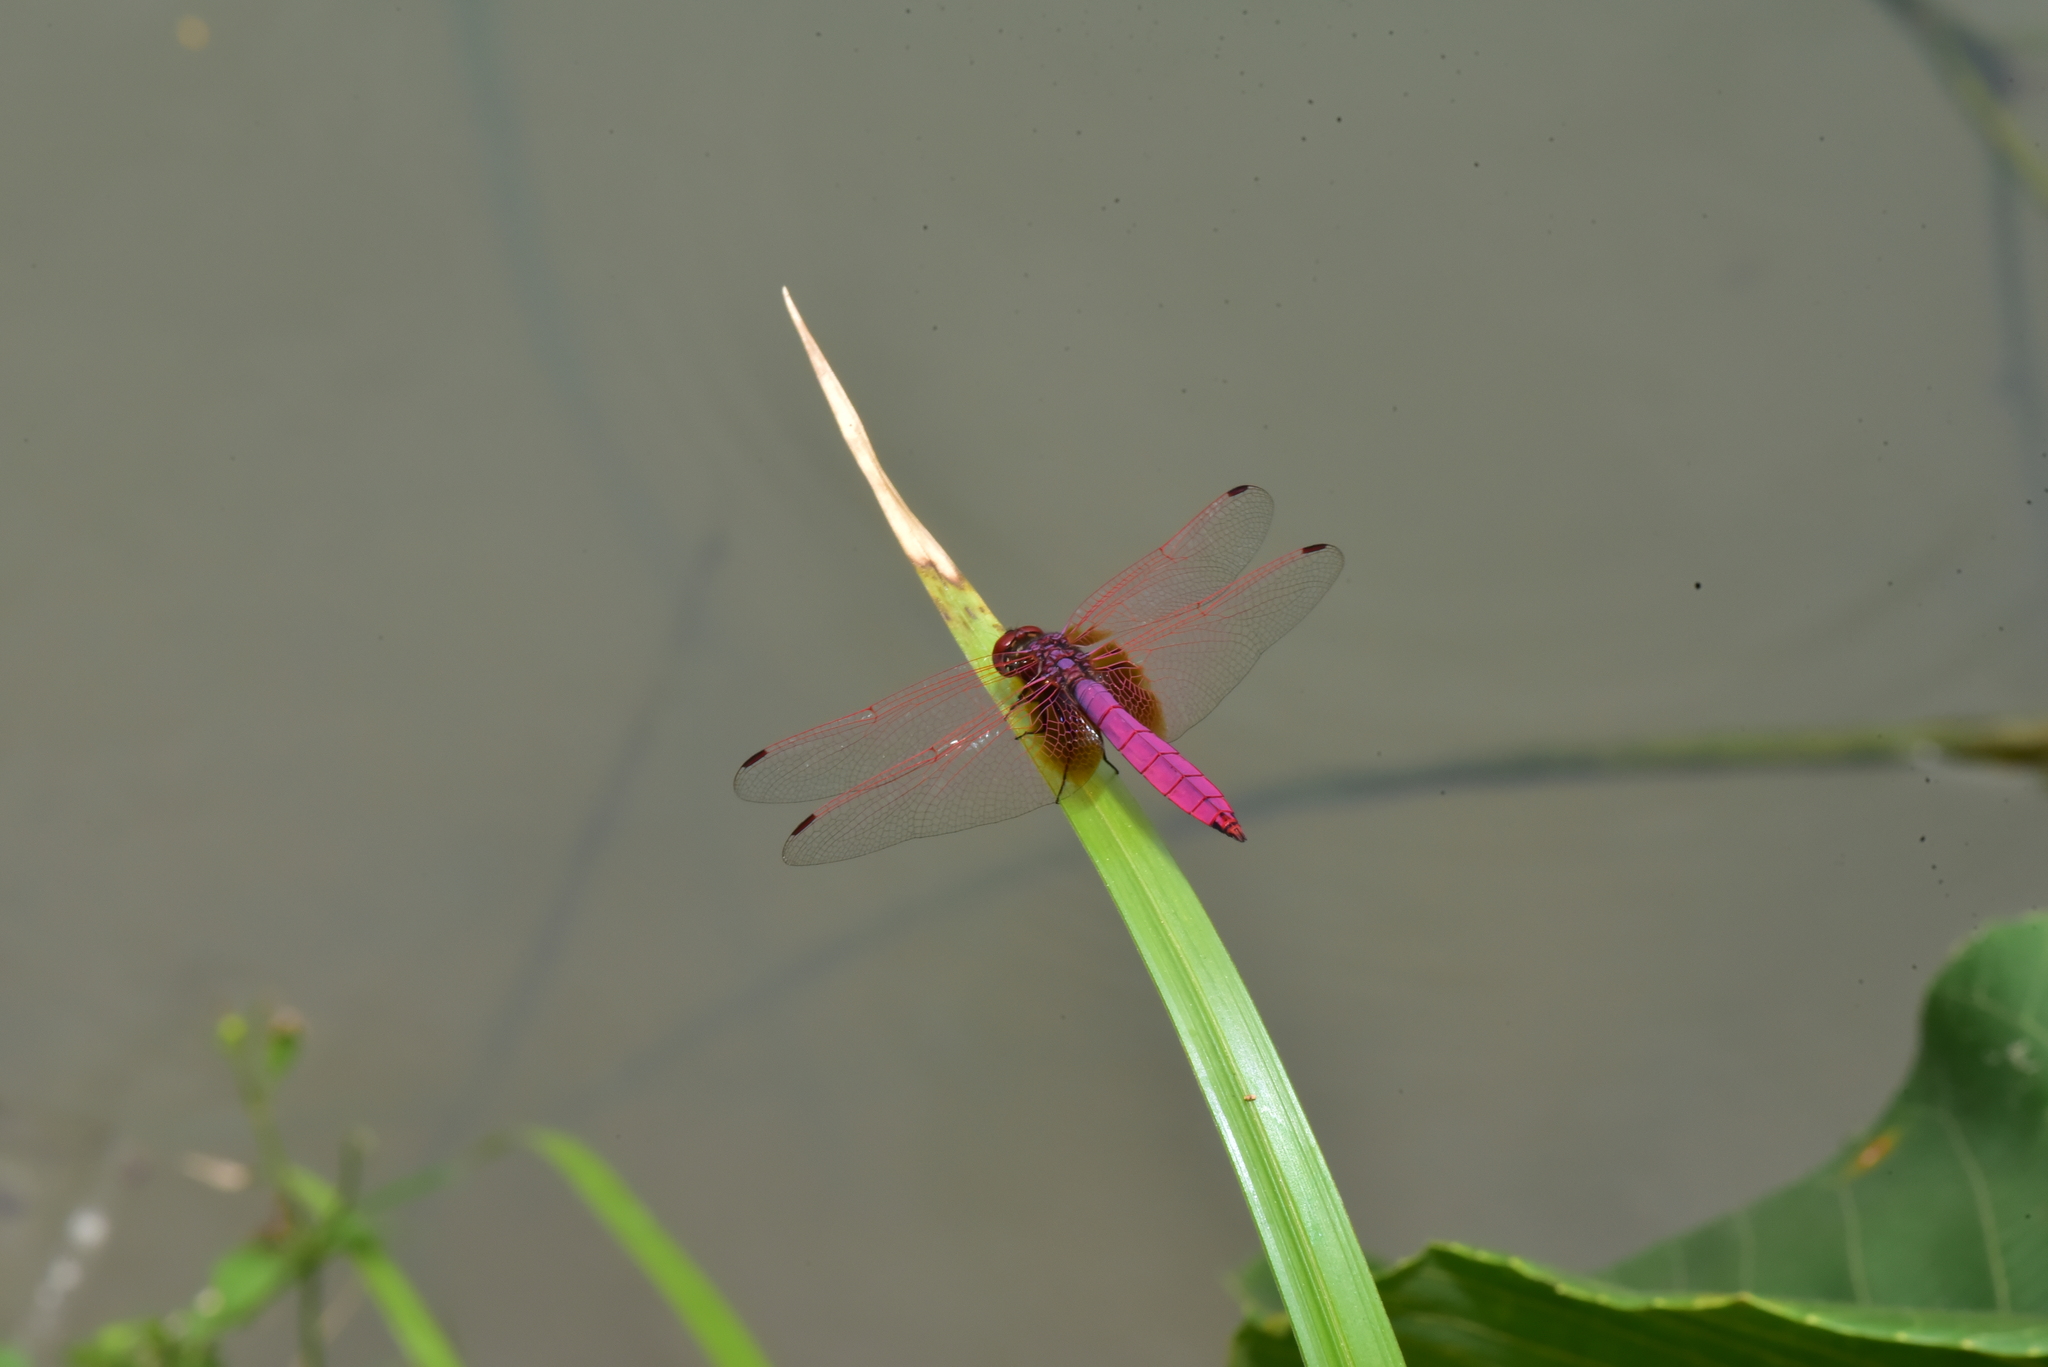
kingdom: Animalia
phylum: Arthropoda
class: Insecta
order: Odonata
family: Libellulidae
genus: Trithemis
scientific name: Trithemis aurora
